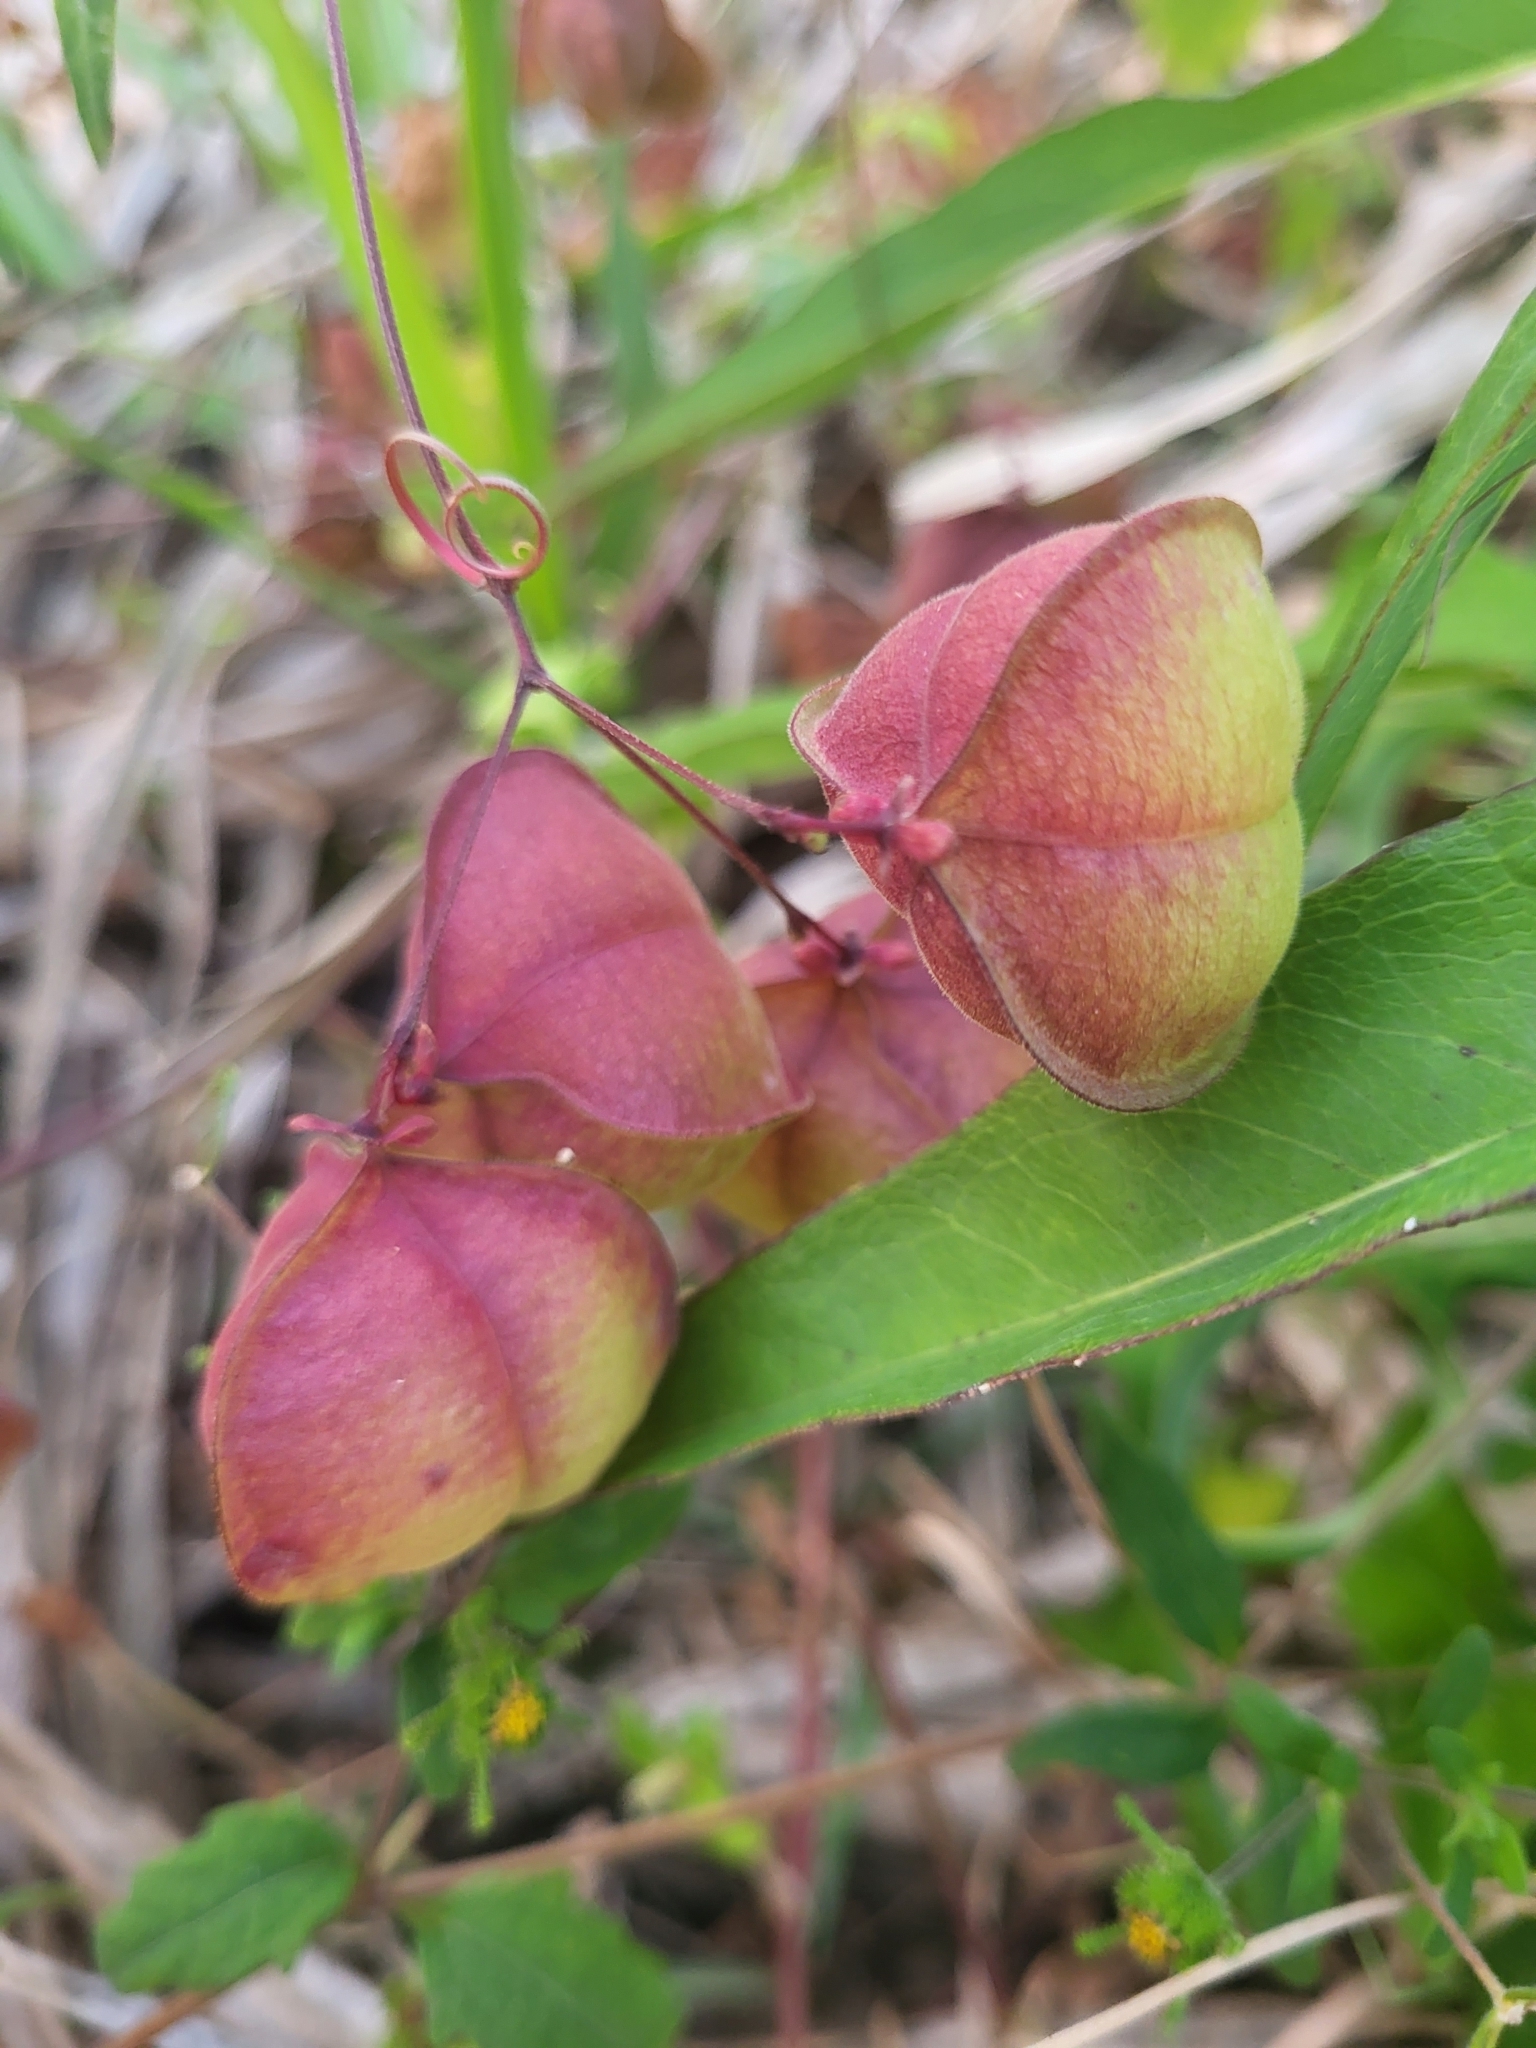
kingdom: Plantae
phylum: Tracheophyta
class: Magnoliopsida
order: Sapindales
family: Sapindaceae
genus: Cardiospermum
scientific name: Cardiospermum halicacabum
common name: Balloon vine
